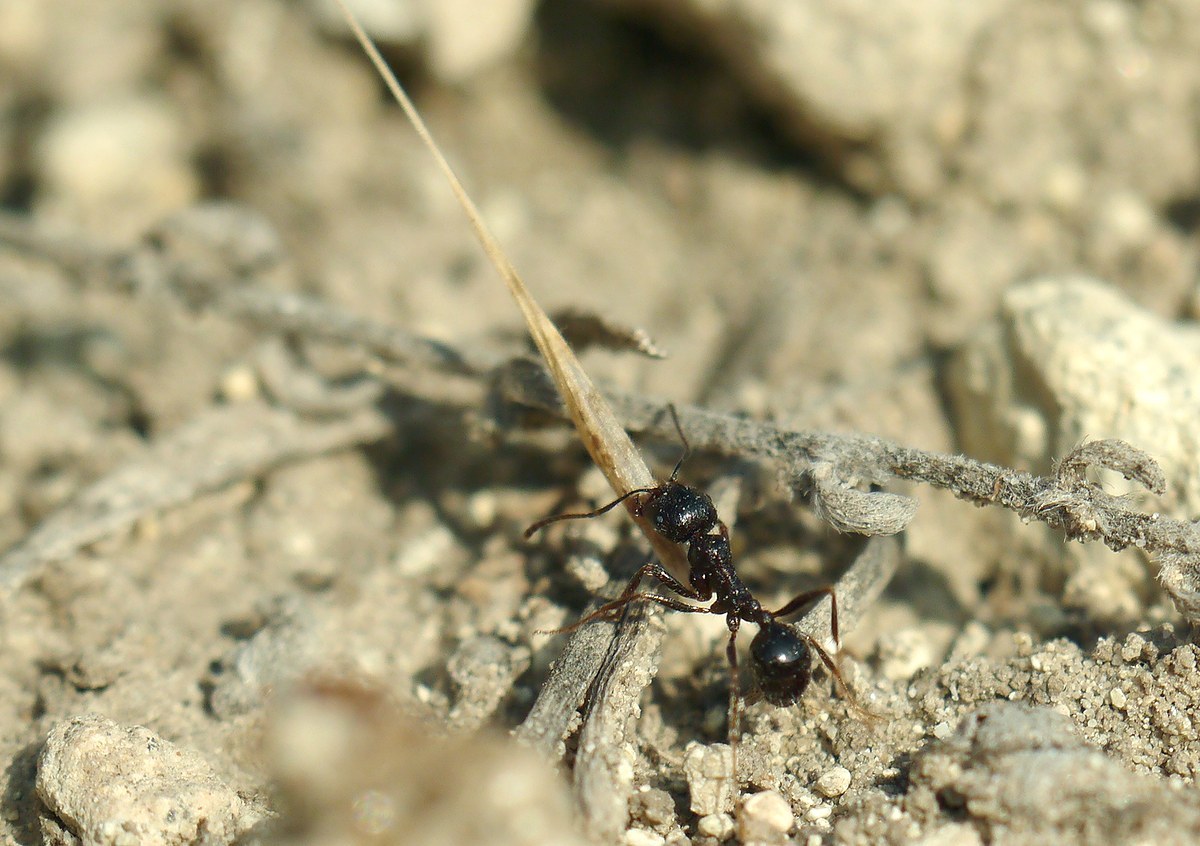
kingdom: Animalia
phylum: Arthropoda
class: Insecta
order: Hymenoptera
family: Formicidae
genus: Messor
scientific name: Messor structor
